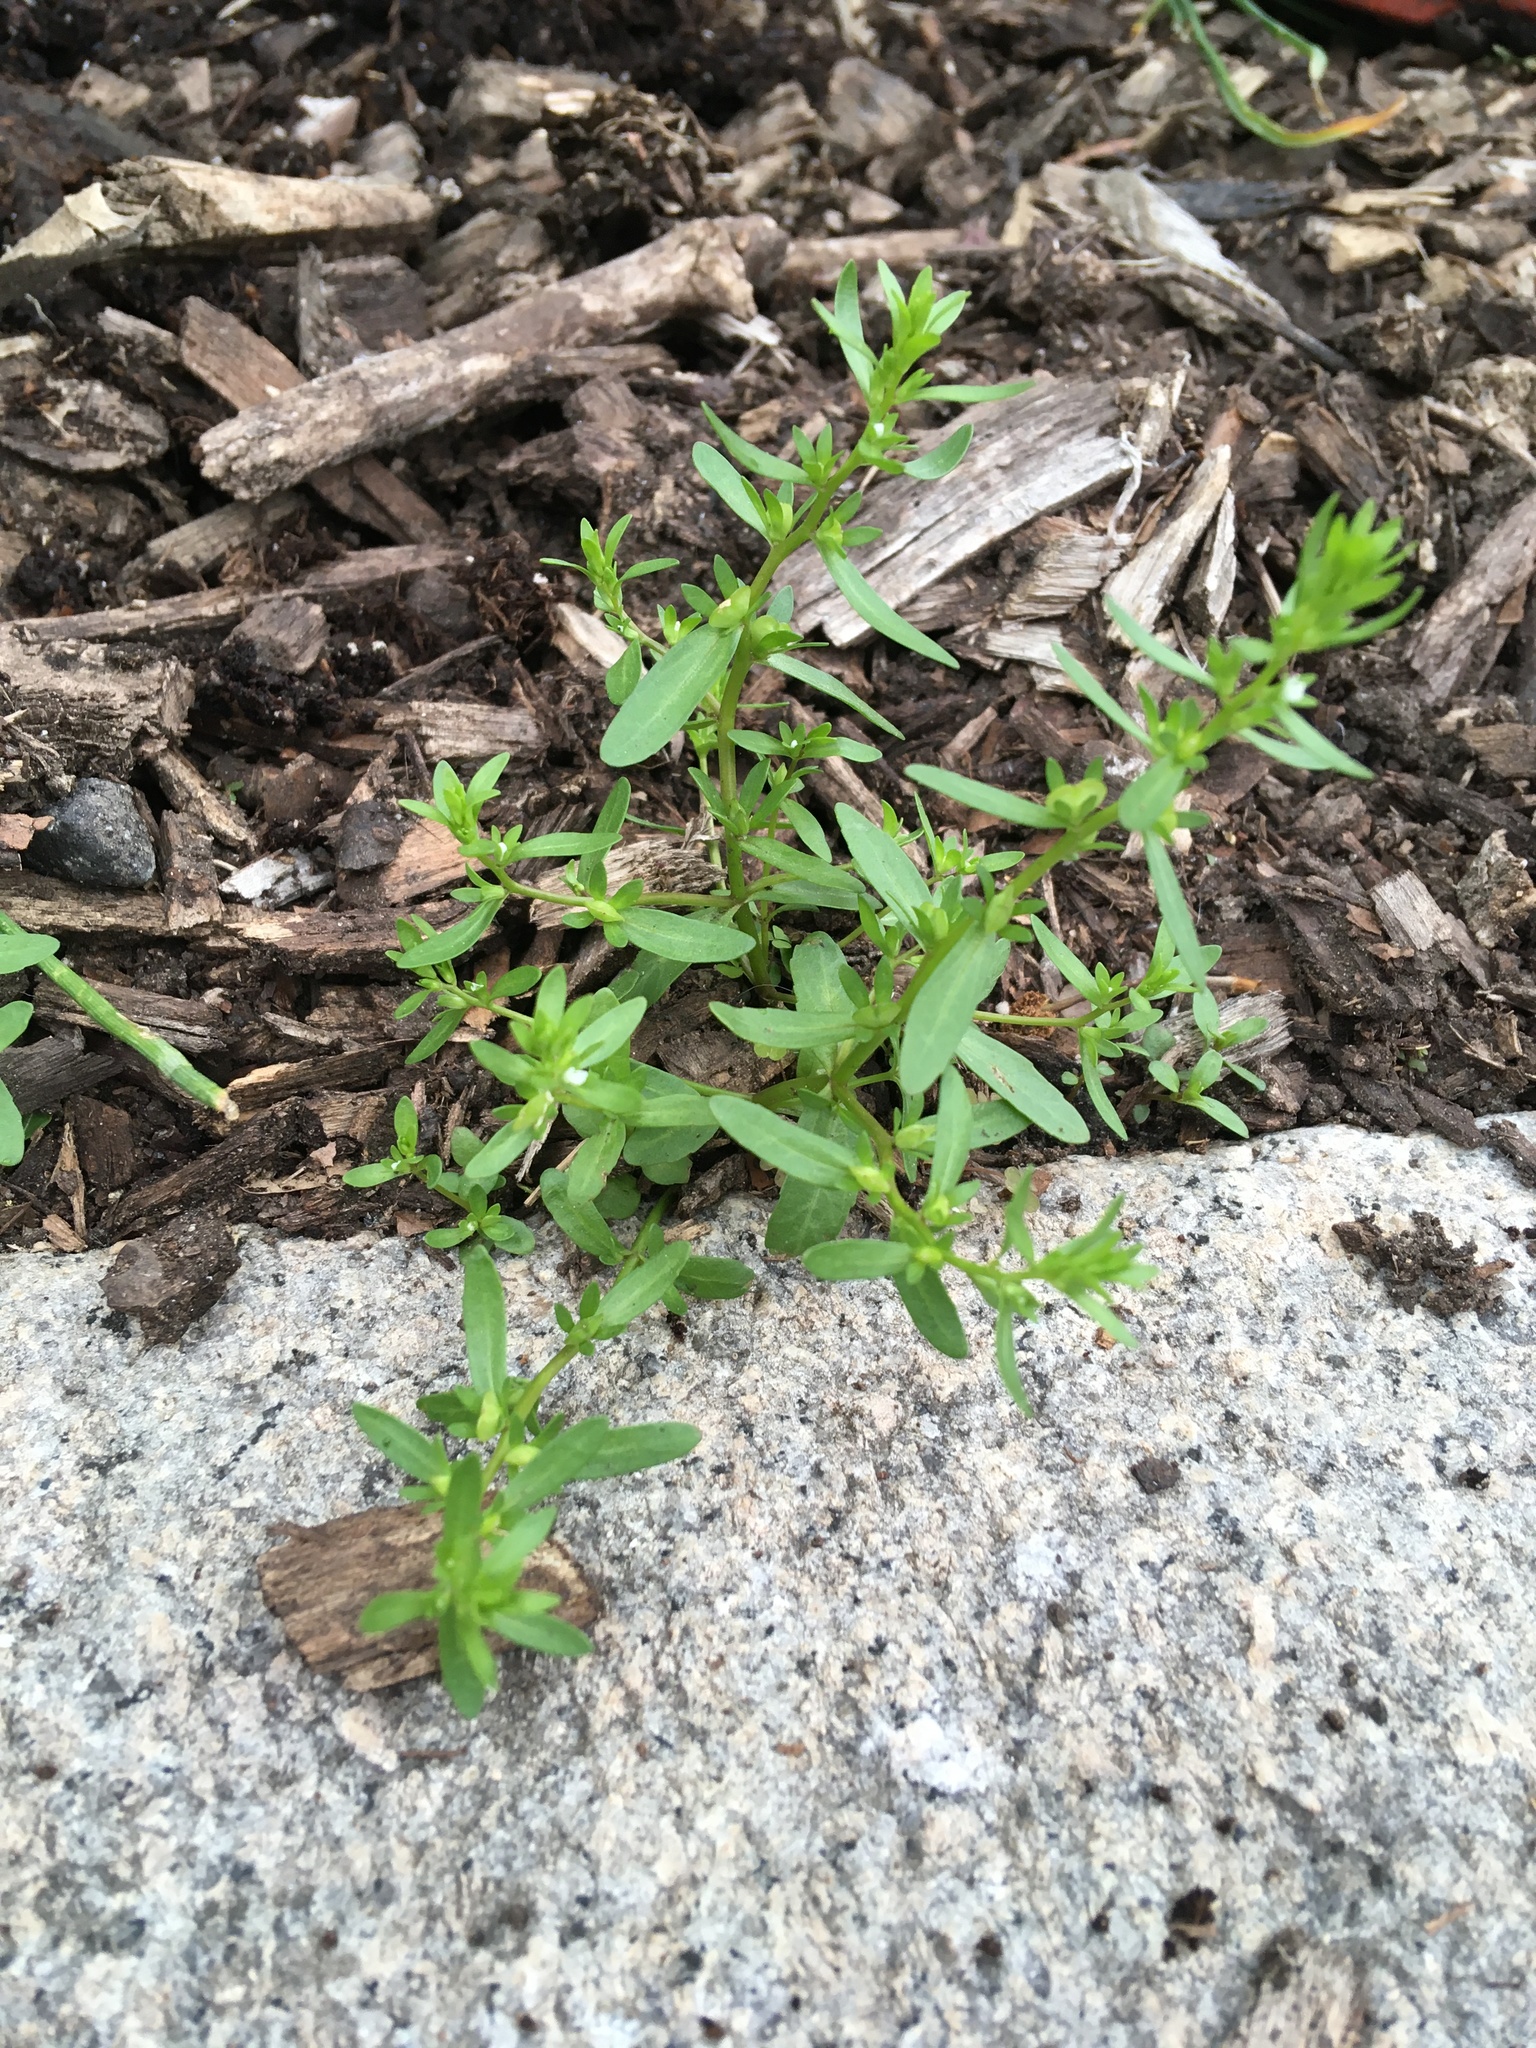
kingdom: Plantae
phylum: Tracheophyta
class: Magnoliopsida
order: Lamiales
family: Plantaginaceae
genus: Veronica
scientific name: Veronica peregrina
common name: Neckweed
